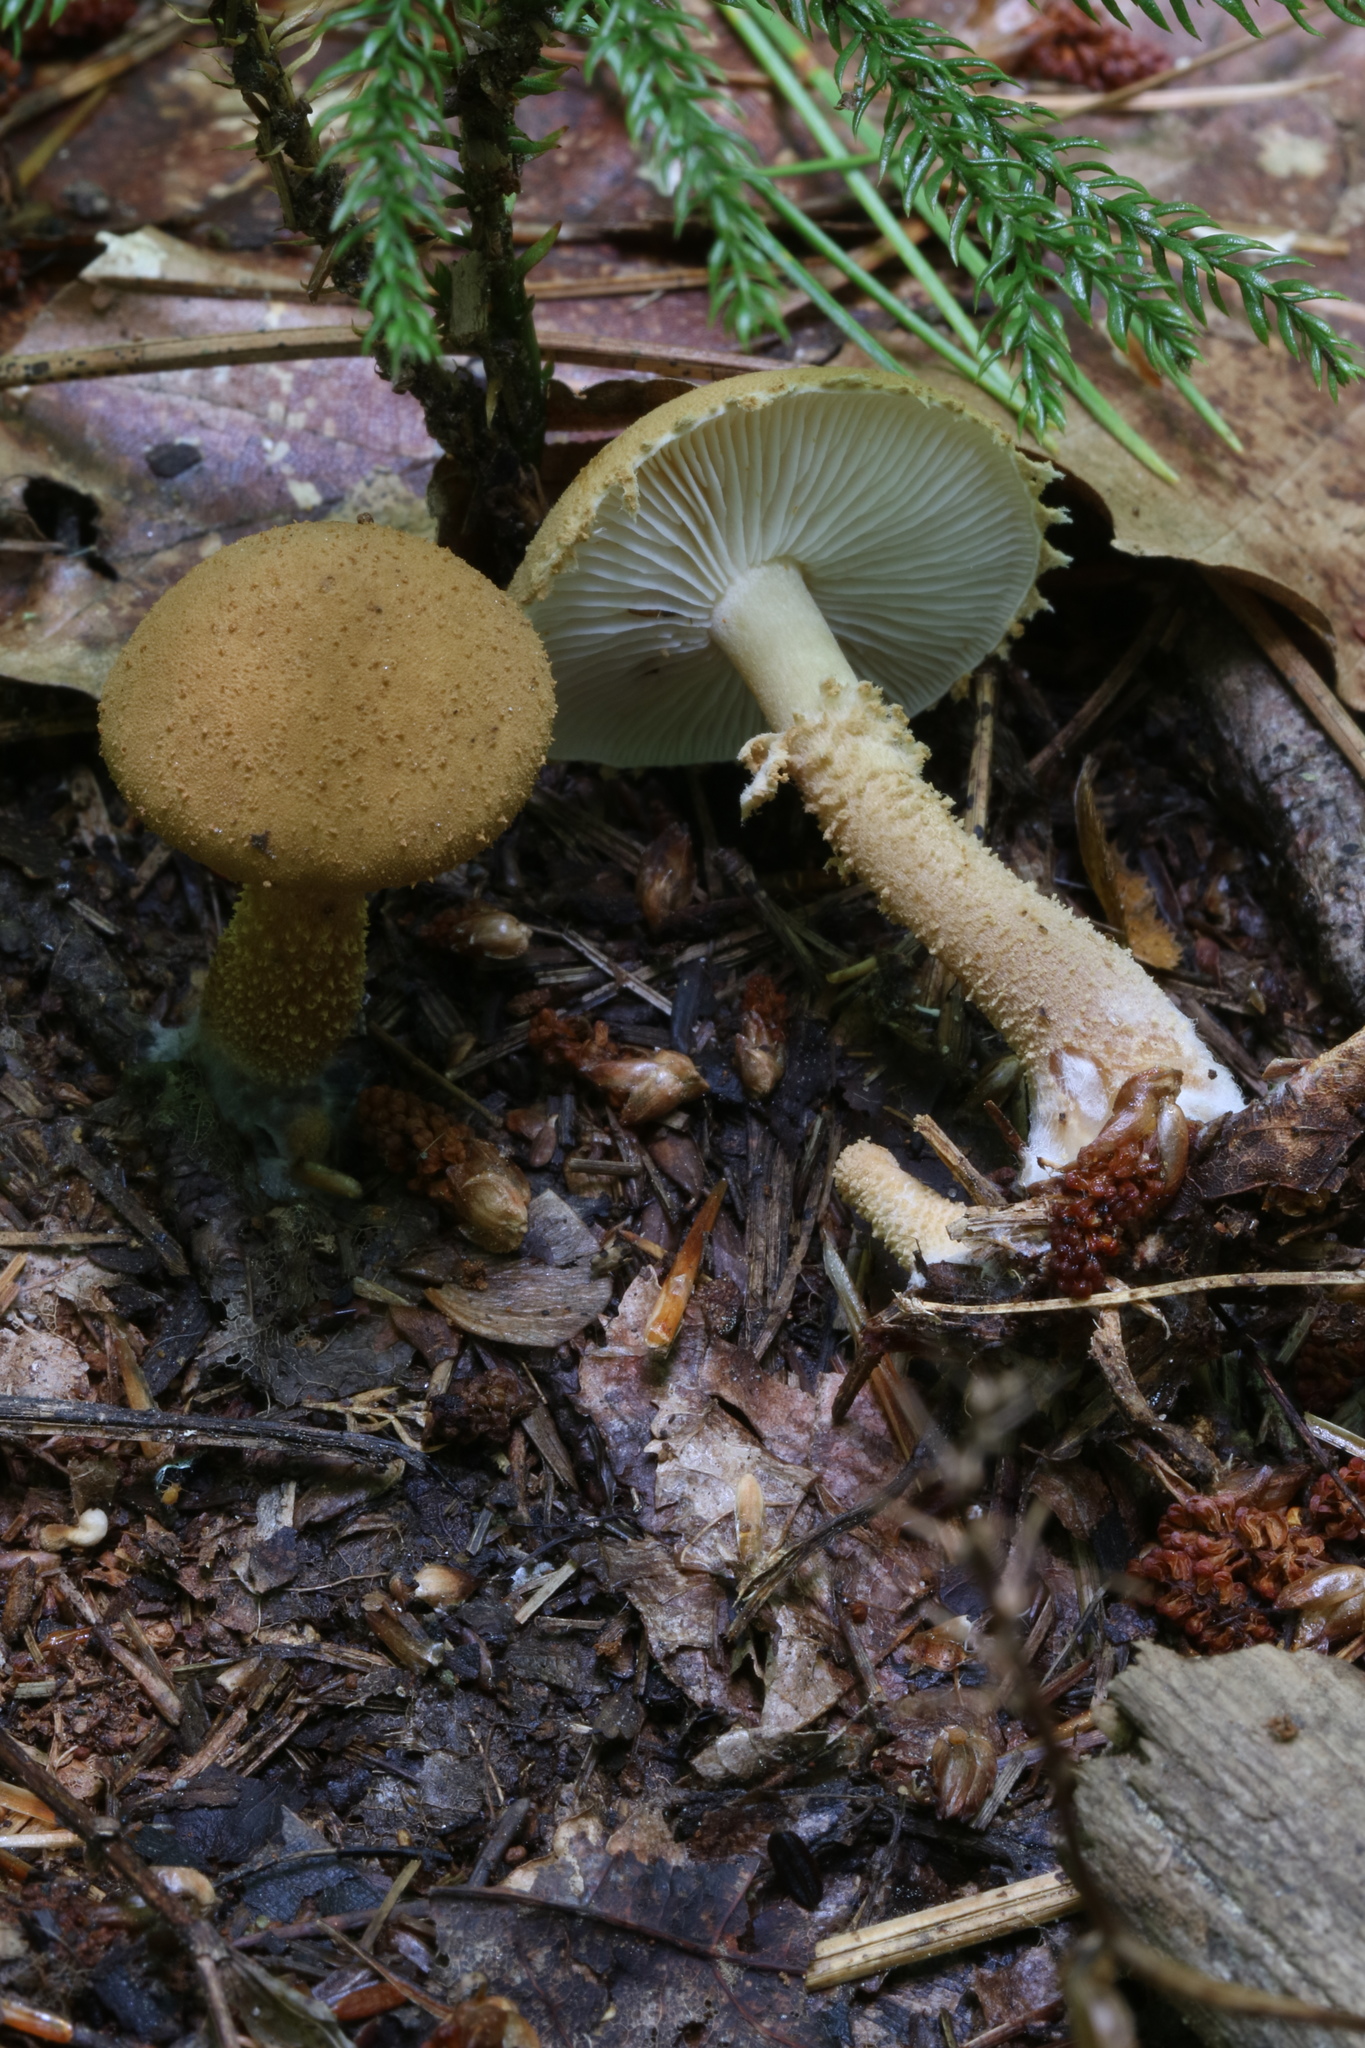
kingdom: Fungi
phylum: Basidiomycota
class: Agaricomycetes
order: Agaricales
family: Tricholomataceae
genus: Cystoderma
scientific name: Cystoderma amianthinum
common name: Earthy powdercap
